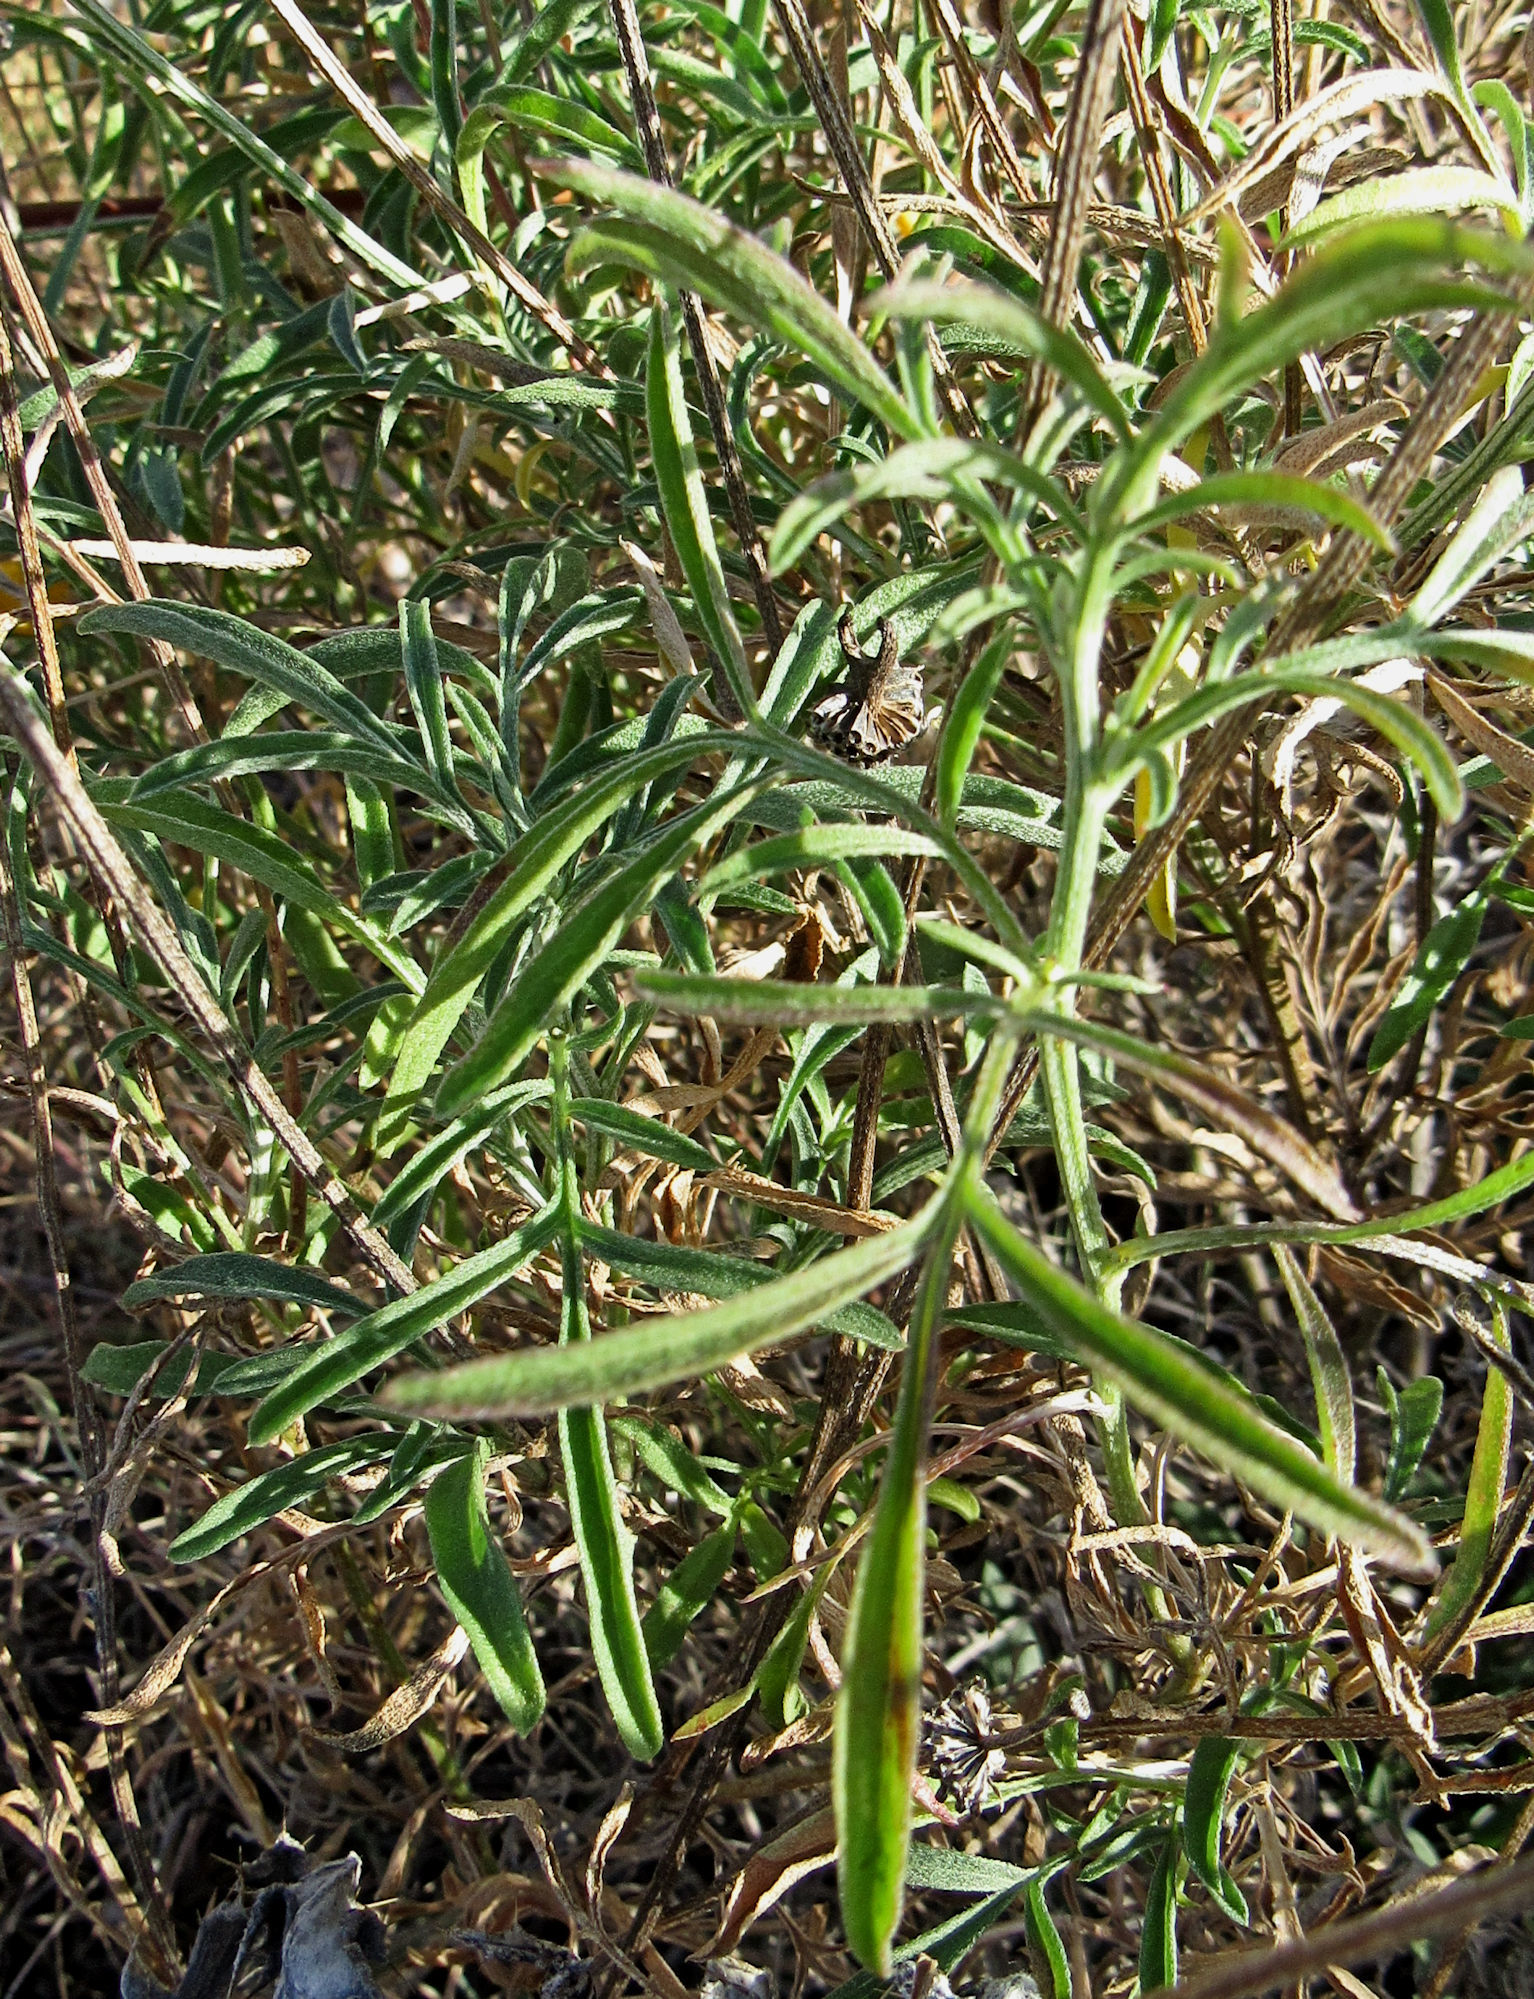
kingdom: Plantae
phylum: Tracheophyta
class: Magnoliopsida
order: Asterales
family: Asteraceae
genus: Ratibida
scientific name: Ratibida columnifera
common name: Prairie coneflower
